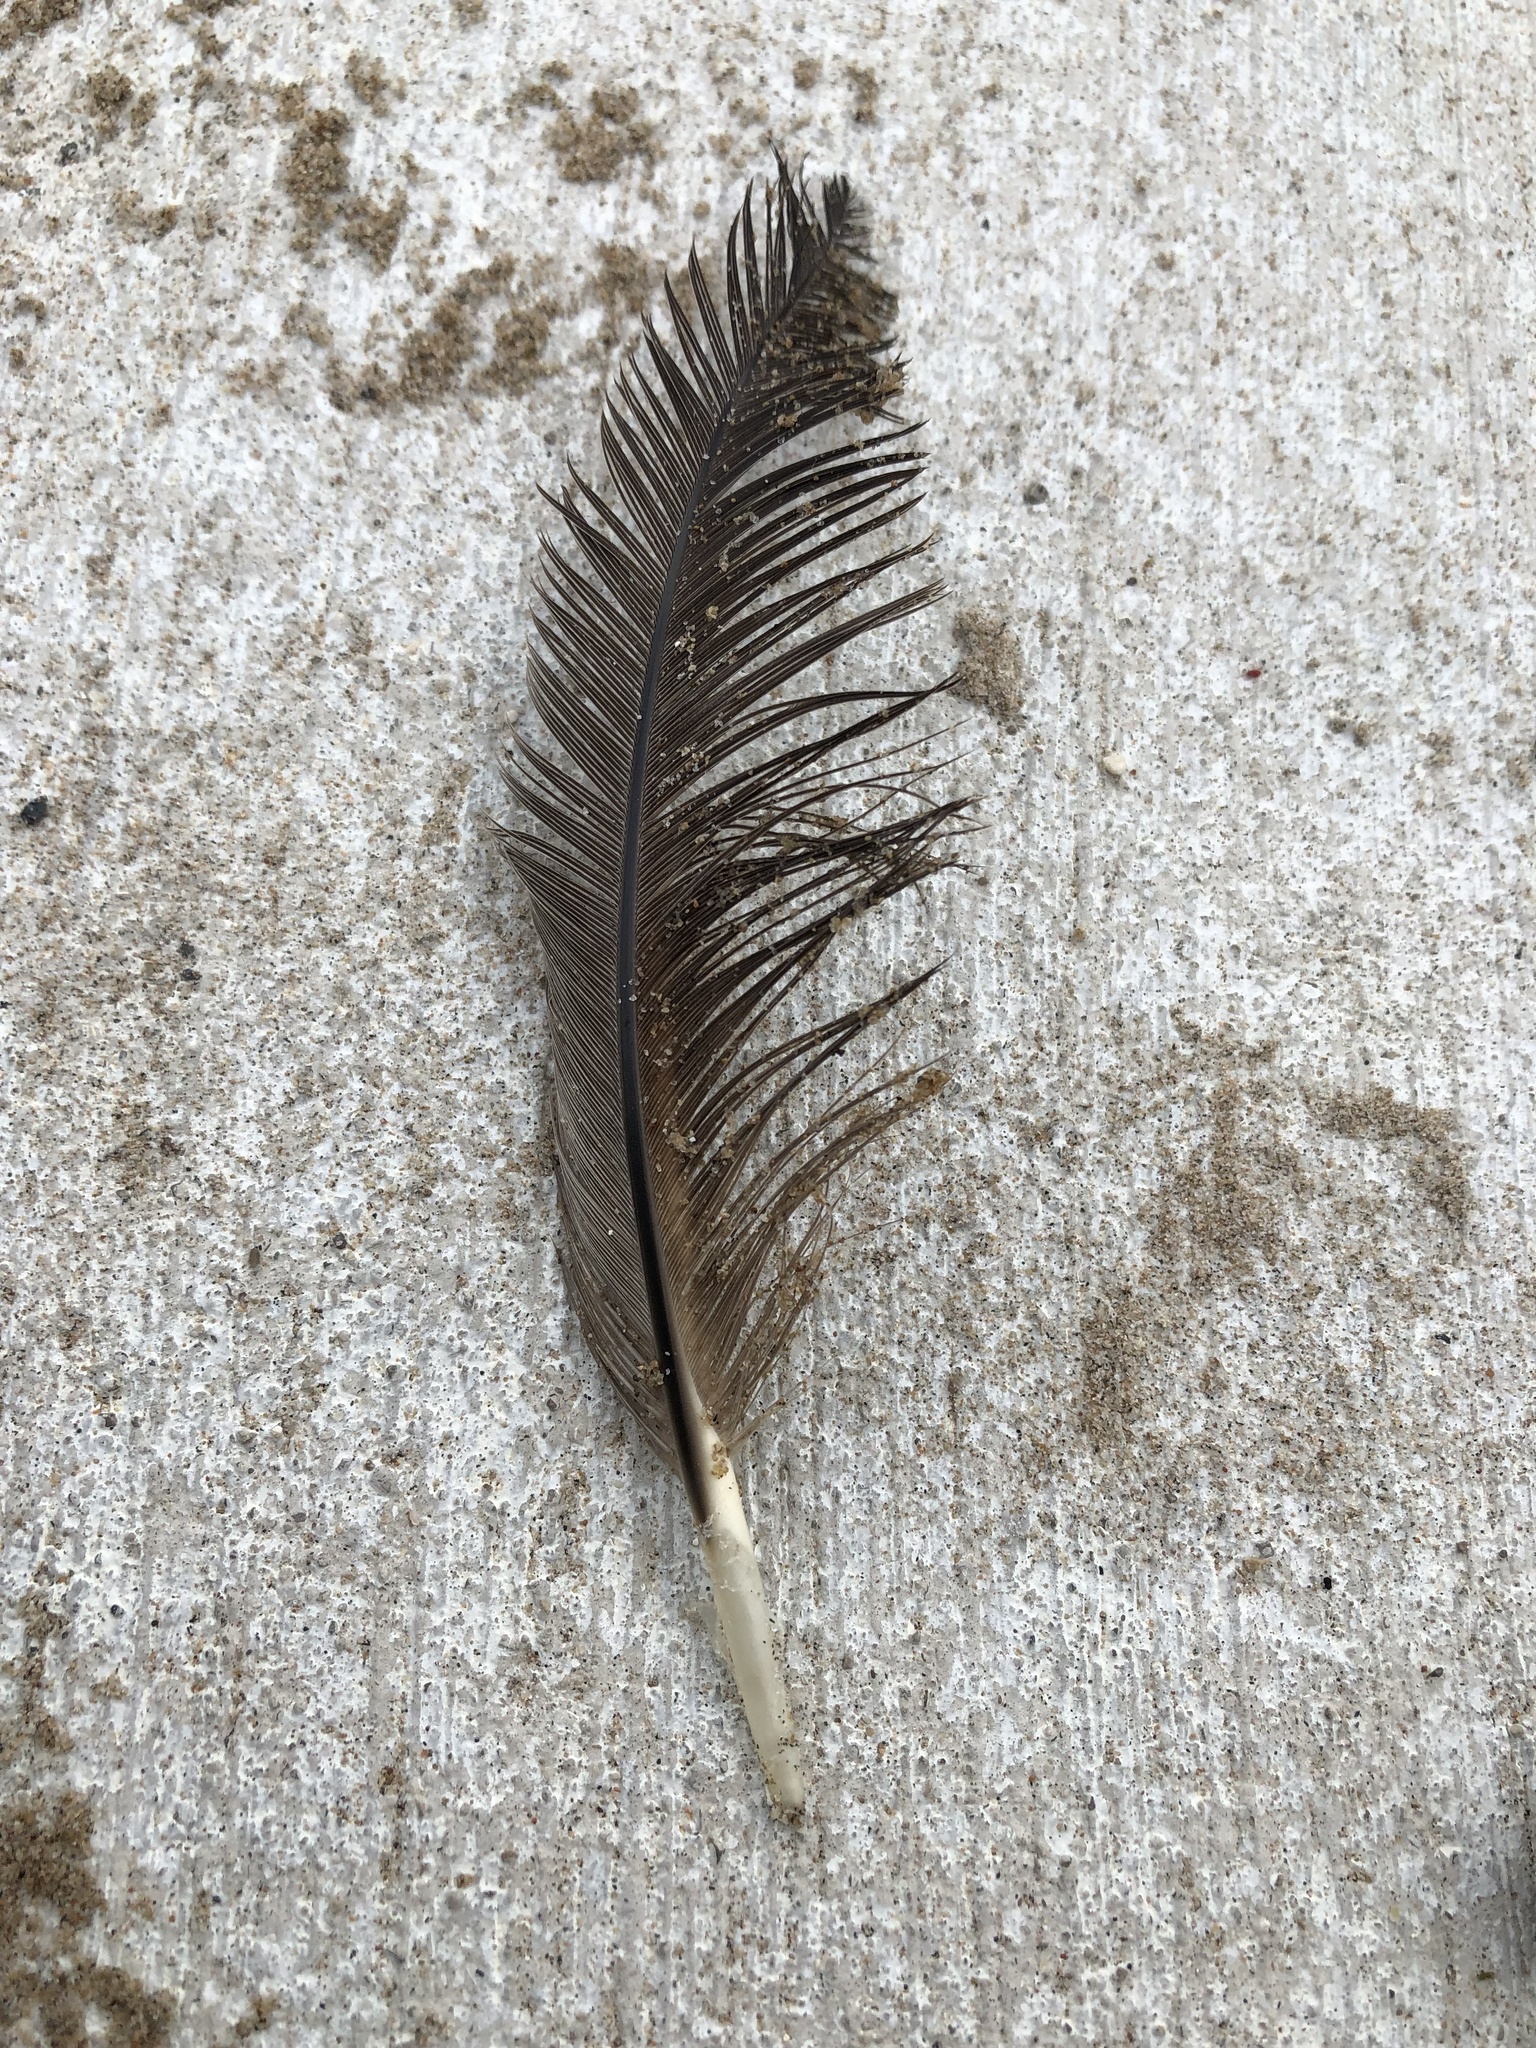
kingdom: Animalia
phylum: Chordata
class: Aves
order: Anseriformes
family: Anatidae
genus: Branta
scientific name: Branta canadensis
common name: Canada goose
